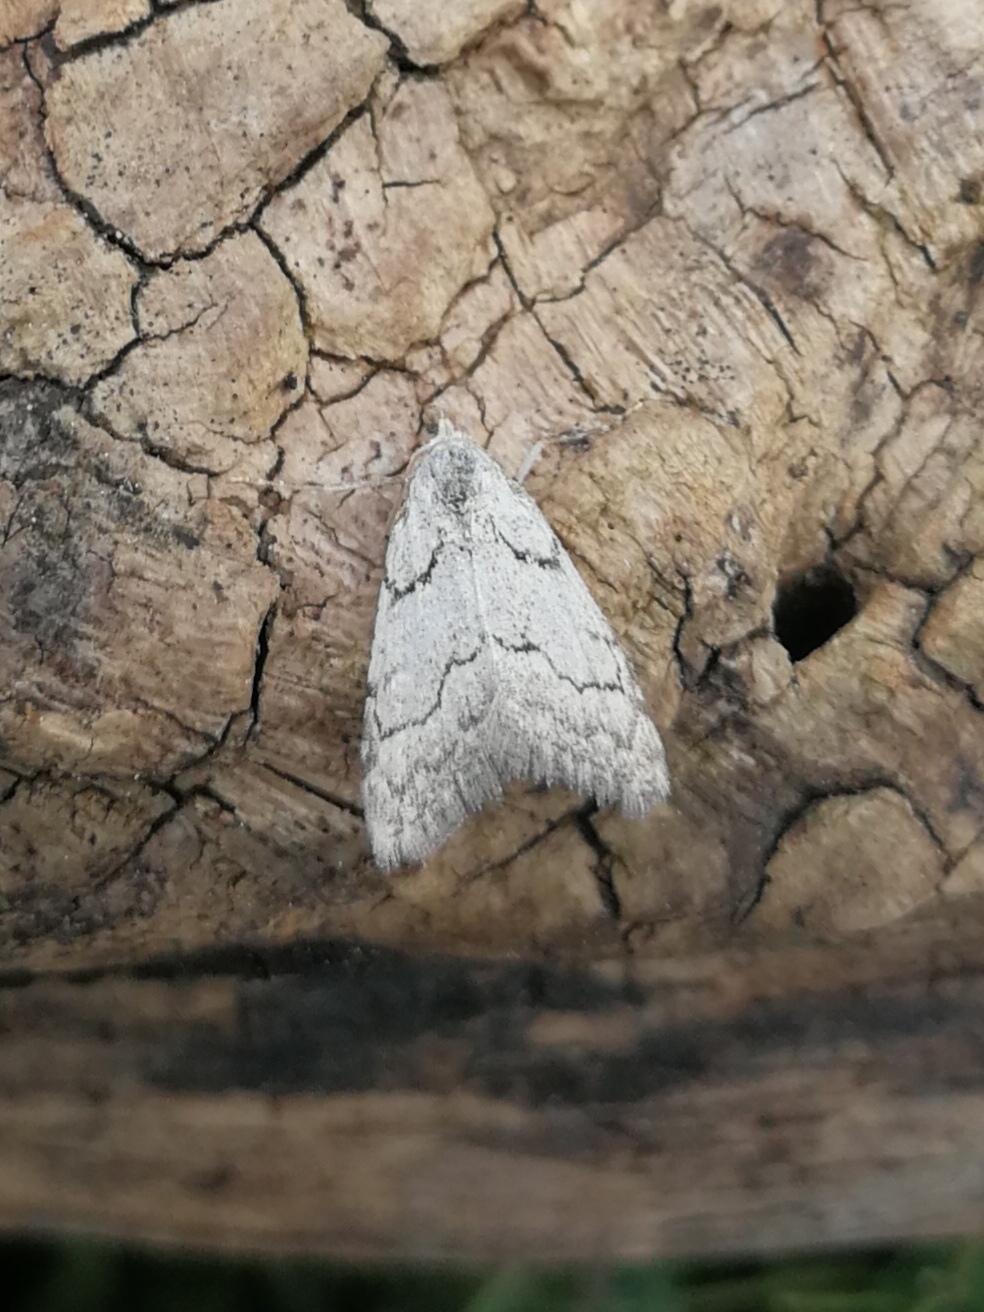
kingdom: Animalia
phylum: Arthropoda
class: Insecta
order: Lepidoptera
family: Nolidae
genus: Nola
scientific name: Nola thymula
